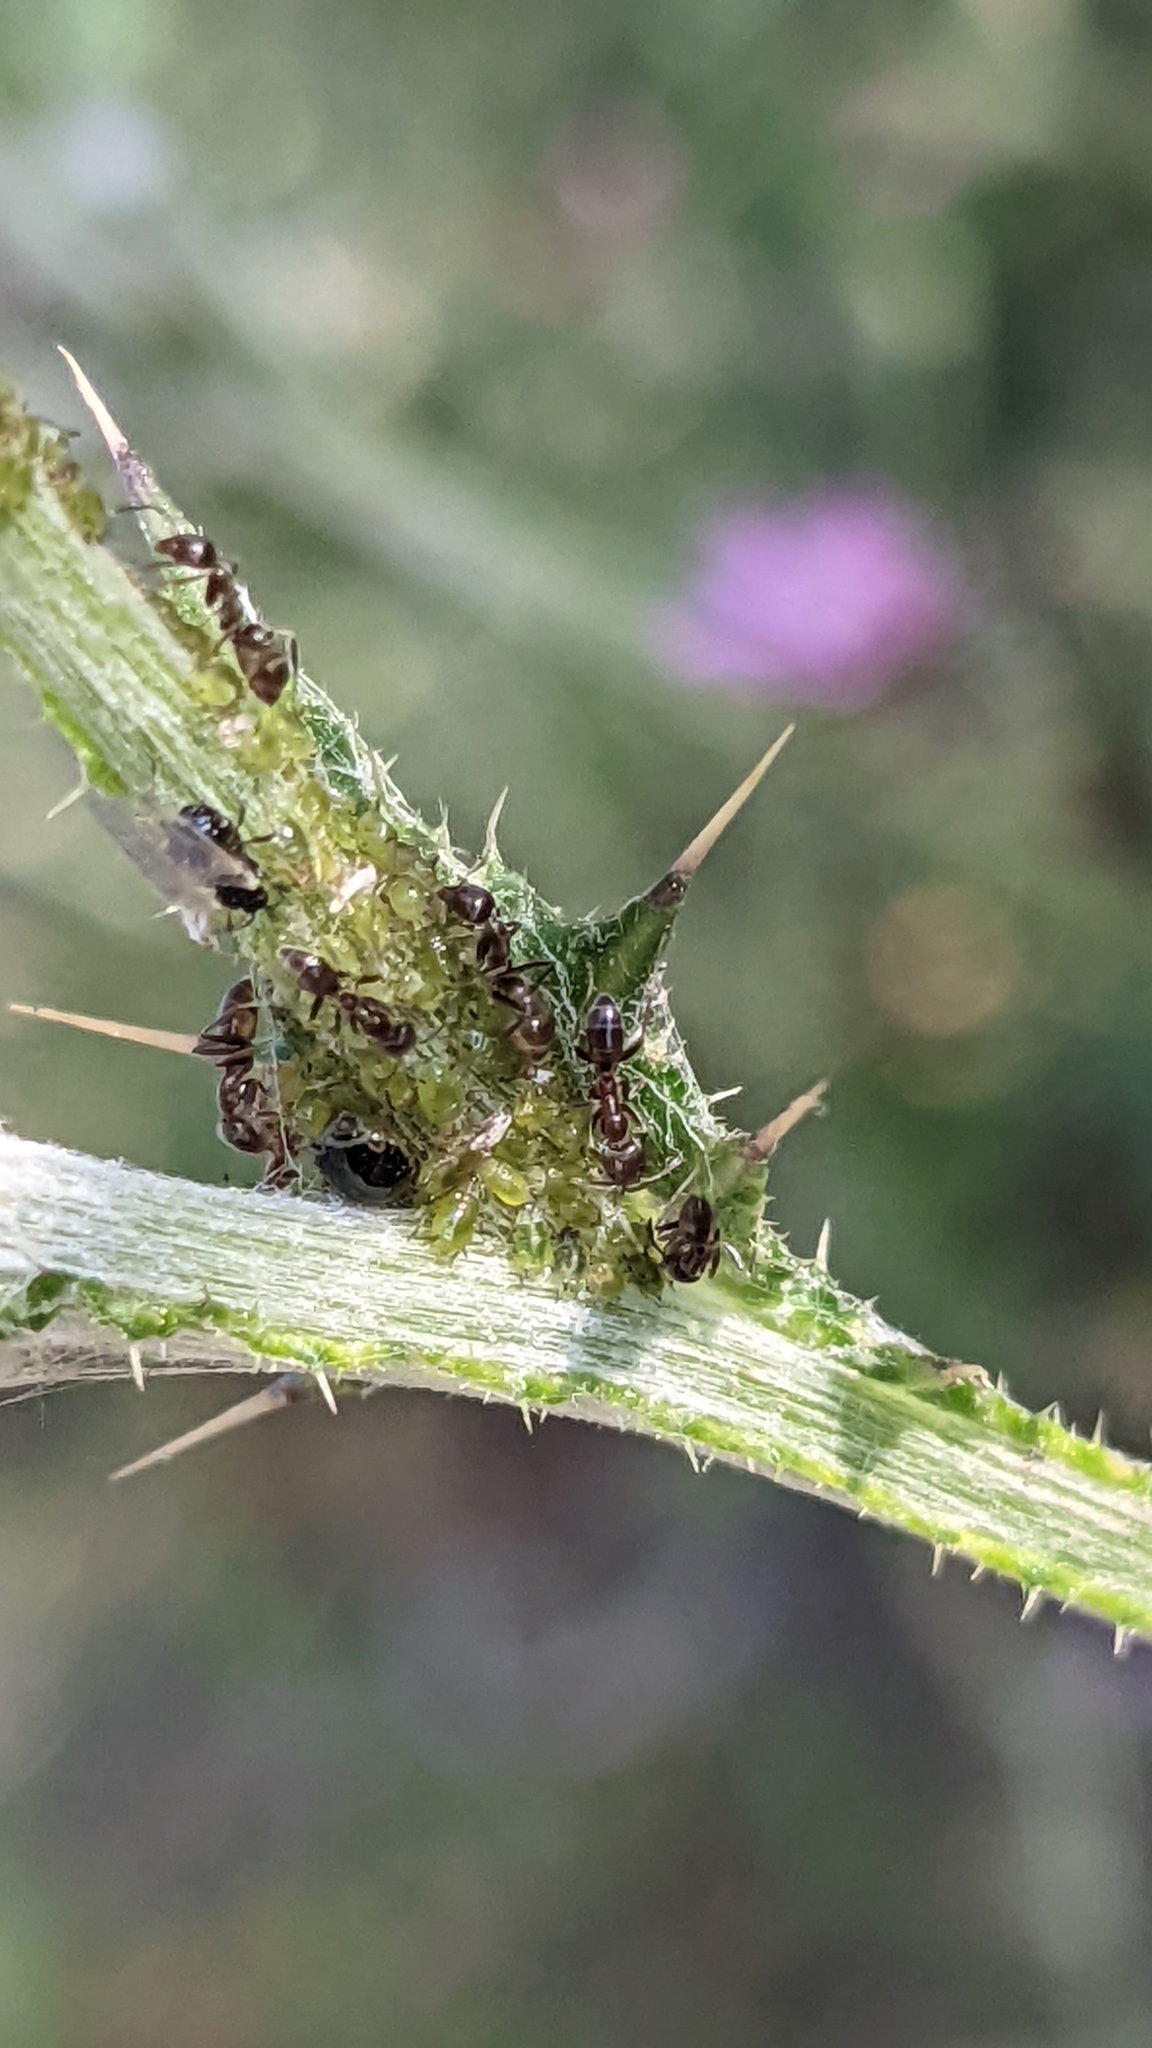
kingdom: Animalia
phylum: Arthropoda
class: Insecta
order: Hymenoptera
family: Formicidae
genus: Linepithema
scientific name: Linepithema humile
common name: Argentine ant
